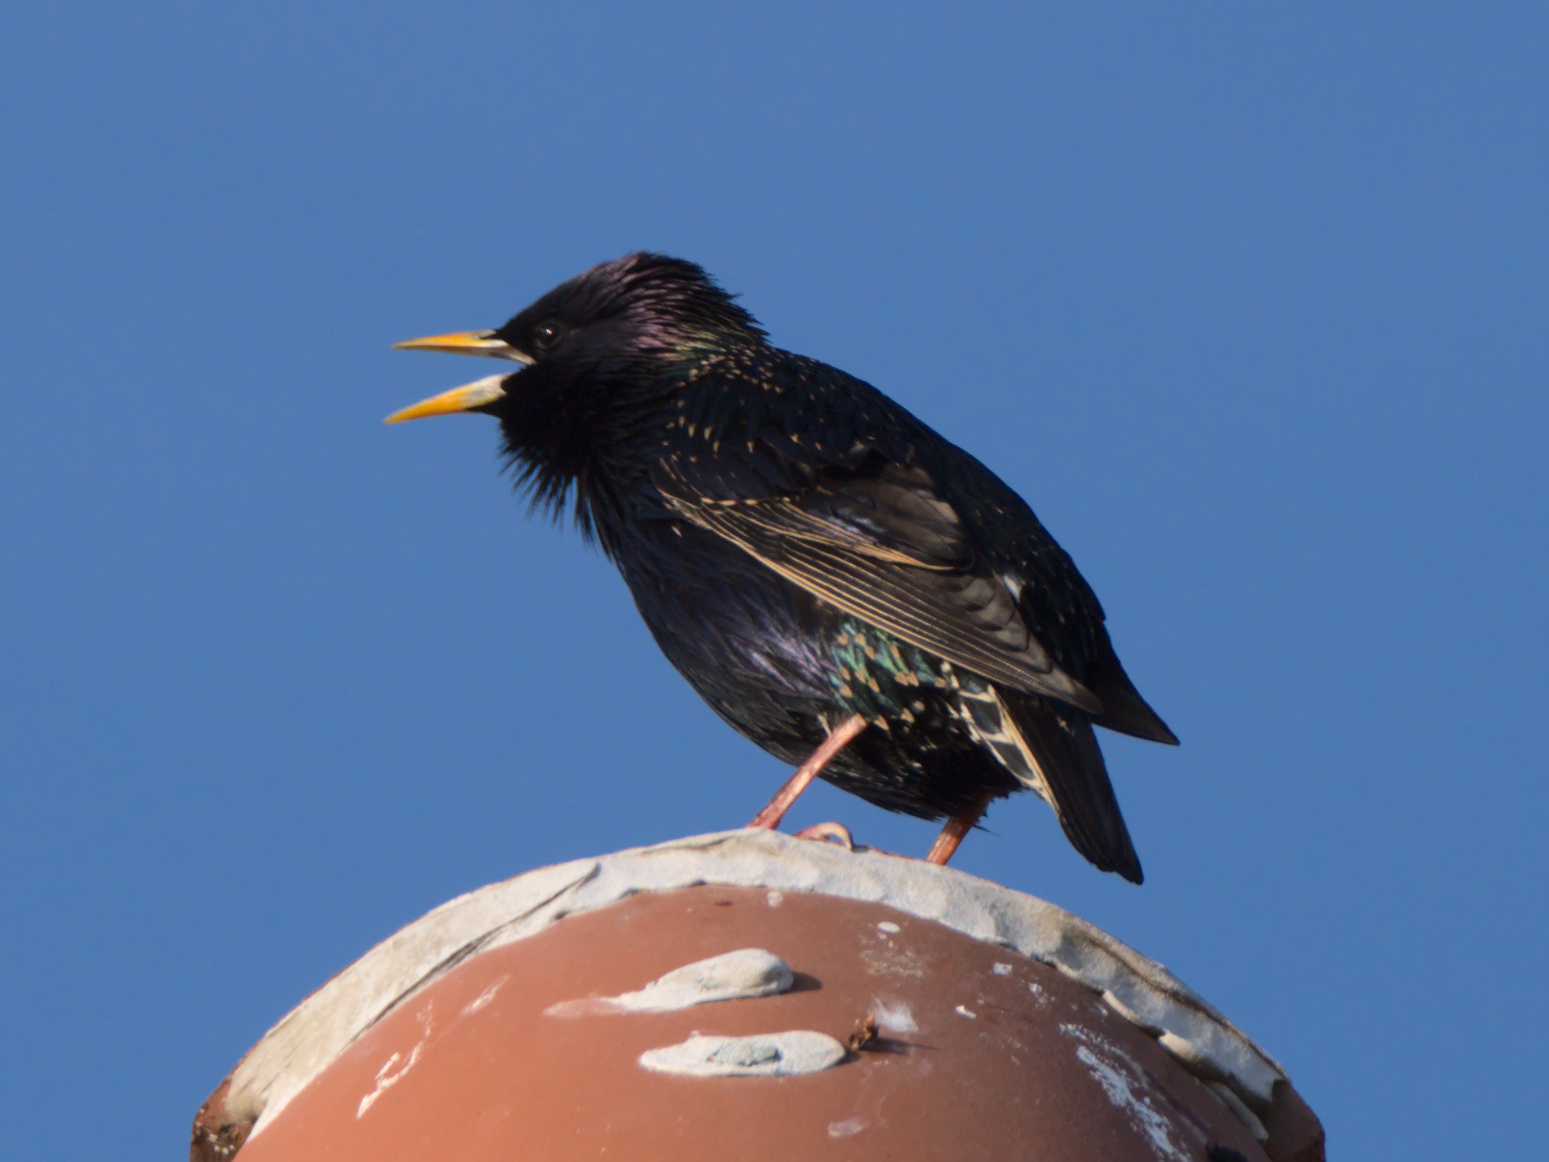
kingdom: Animalia
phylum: Chordata
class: Aves
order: Passeriformes
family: Sturnidae
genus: Sturnus
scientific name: Sturnus vulgaris
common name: Common starling
